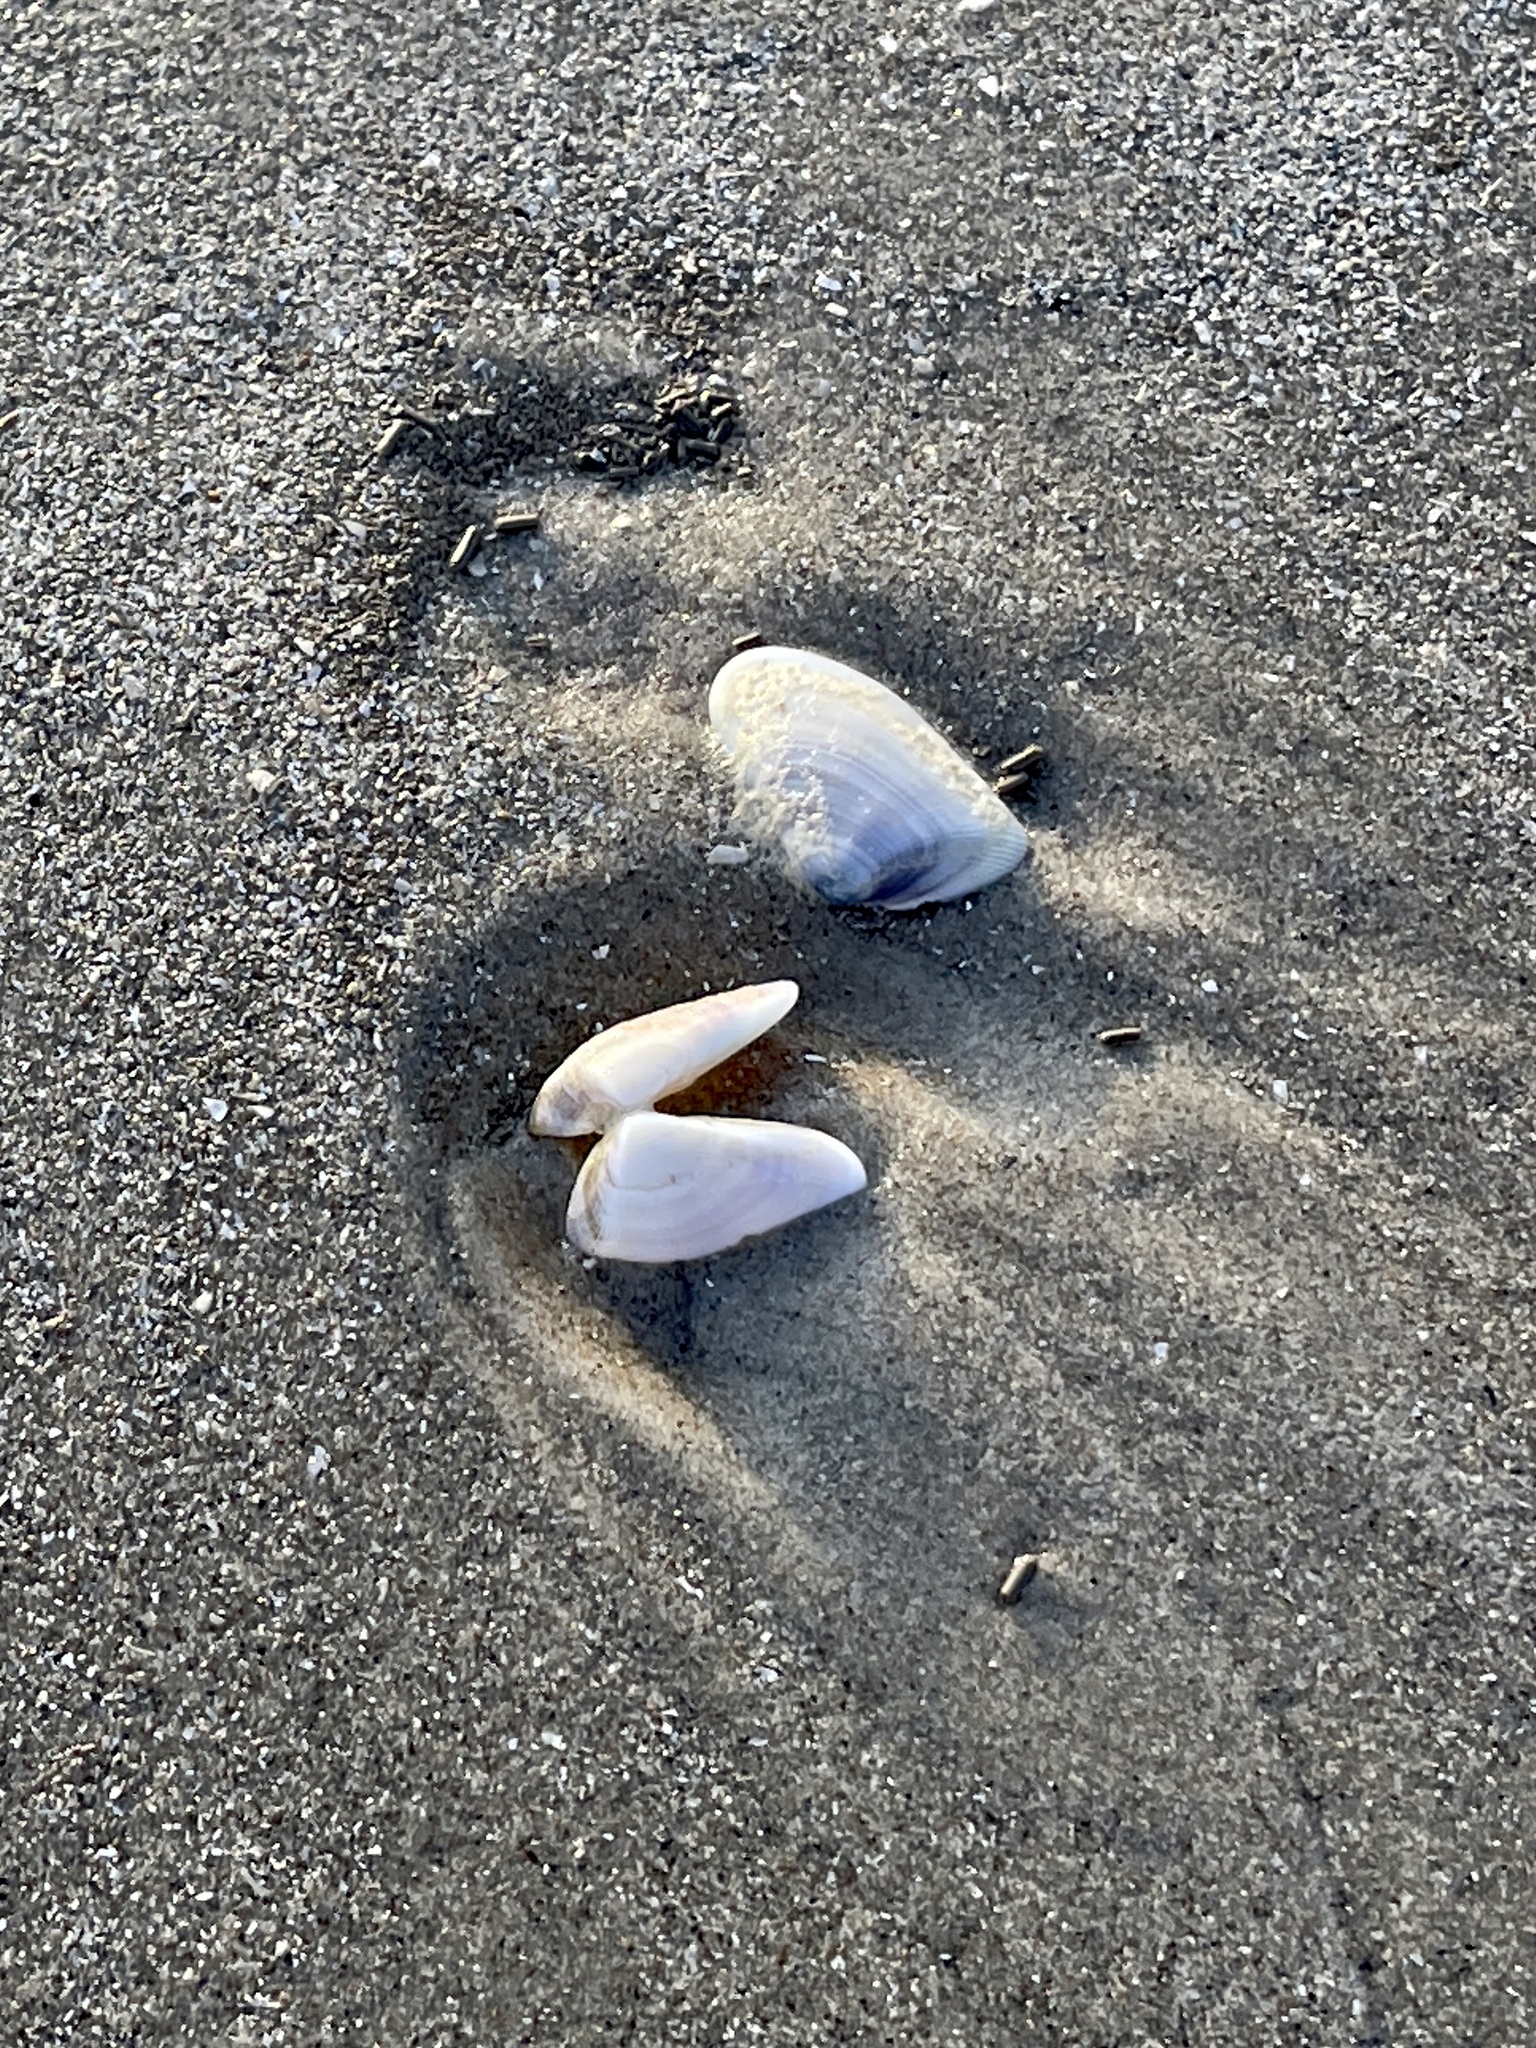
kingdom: Animalia
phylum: Mollusca
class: Bivalvia
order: Cardiida
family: Donacidae
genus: Donax
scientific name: Donax variabilis
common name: Butterfly shell
